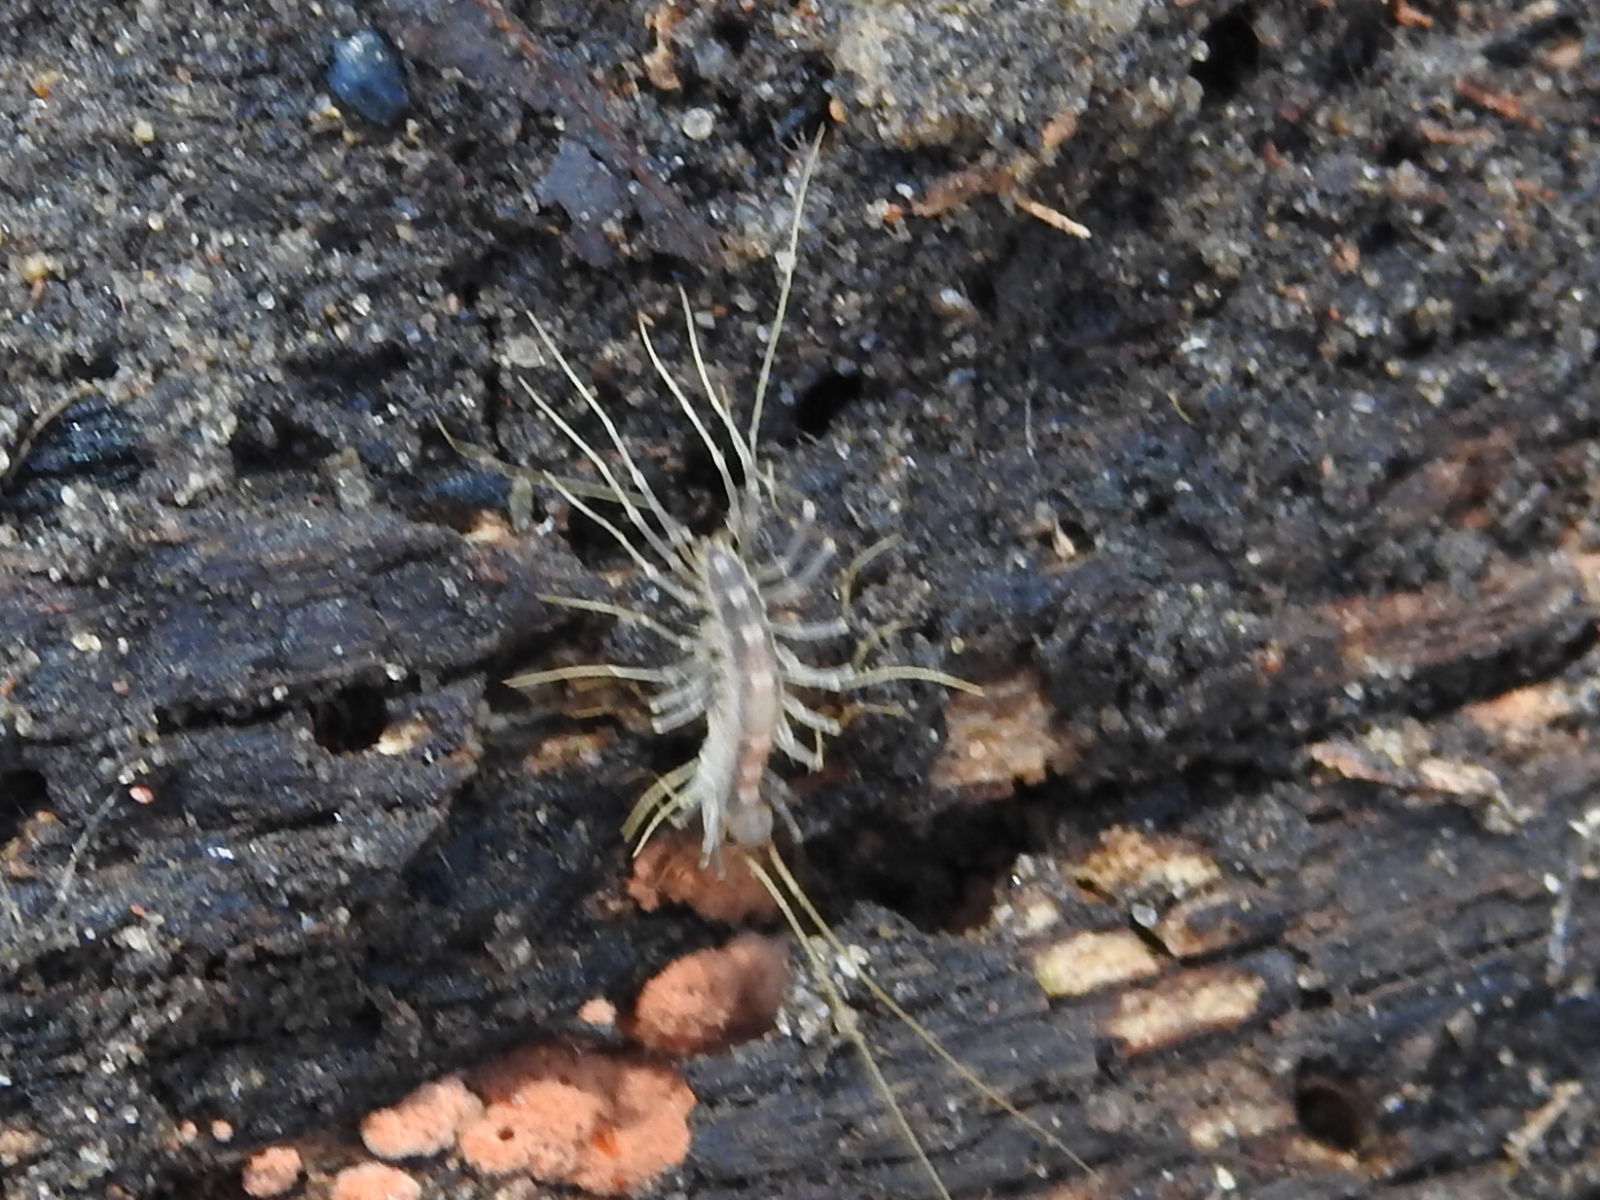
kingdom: Animalia
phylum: Arthropoda
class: Chilopoda
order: Scutigeromorpha
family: Scutigeridae
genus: Scutigera
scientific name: Scutigera coleoptrata
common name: House centipede
